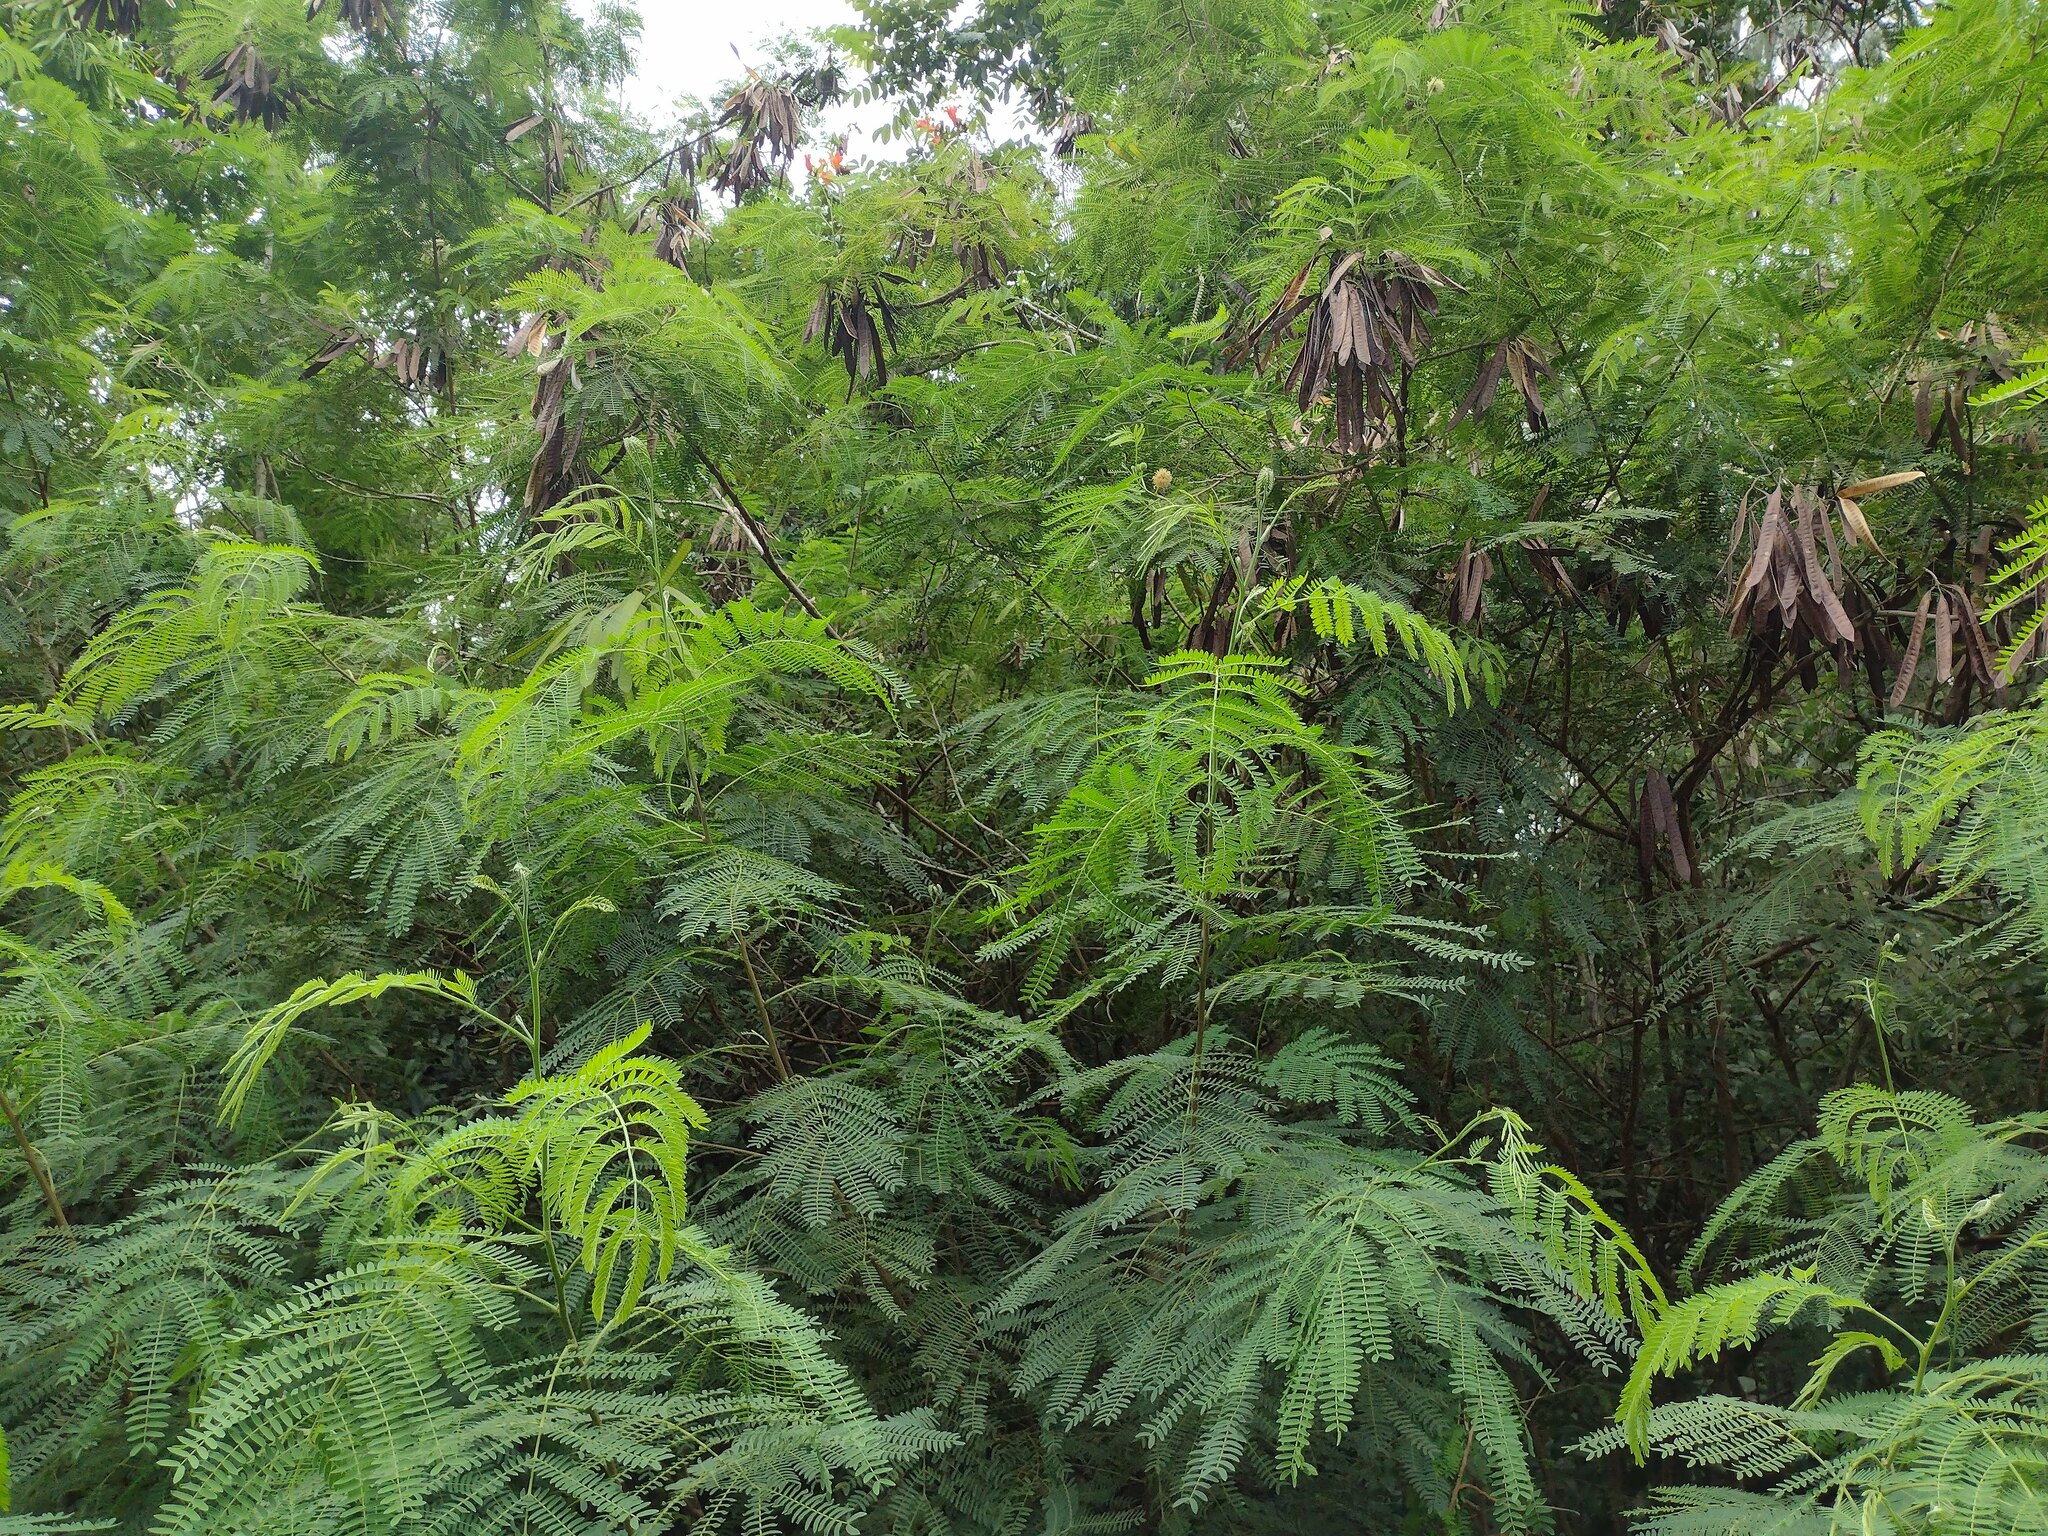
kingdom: Plantae
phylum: Tracheophyta
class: Magnoliopsida
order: Fabales
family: Fabaceae
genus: Leucaena
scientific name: Leucaena leucocephala
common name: White leadtree
